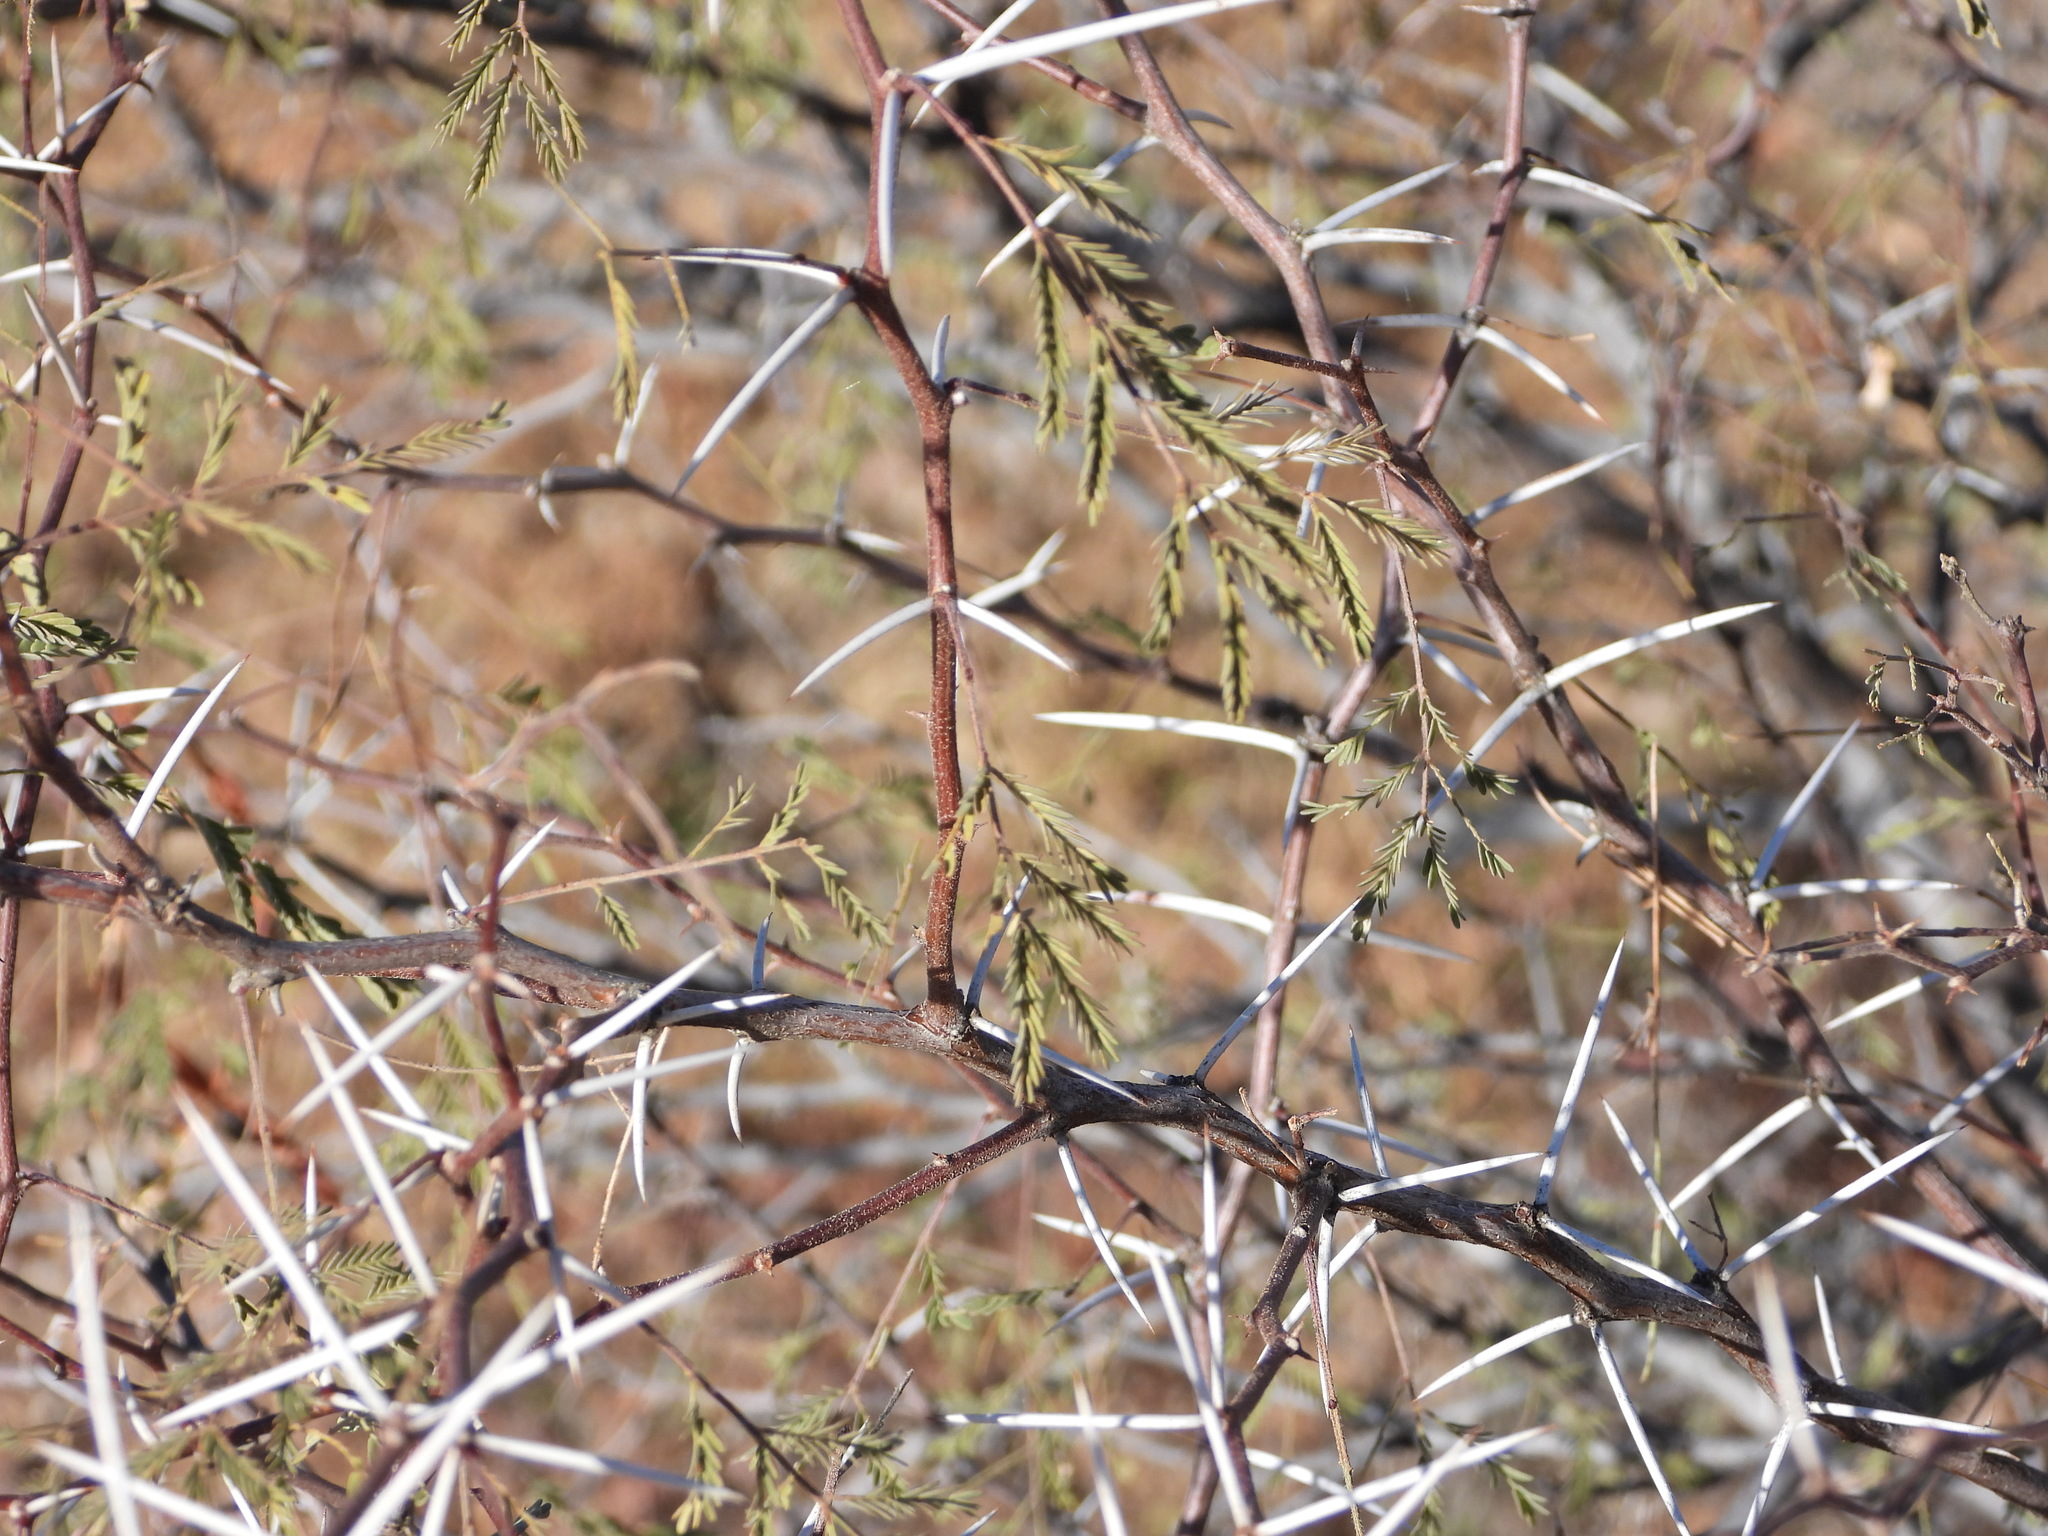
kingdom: Plantae
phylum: Tracheophyta
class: Magnoliopsida
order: Fabales
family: Fabaceae
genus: Vachellia
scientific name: Vachellia constricta
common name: Mescat acacia
